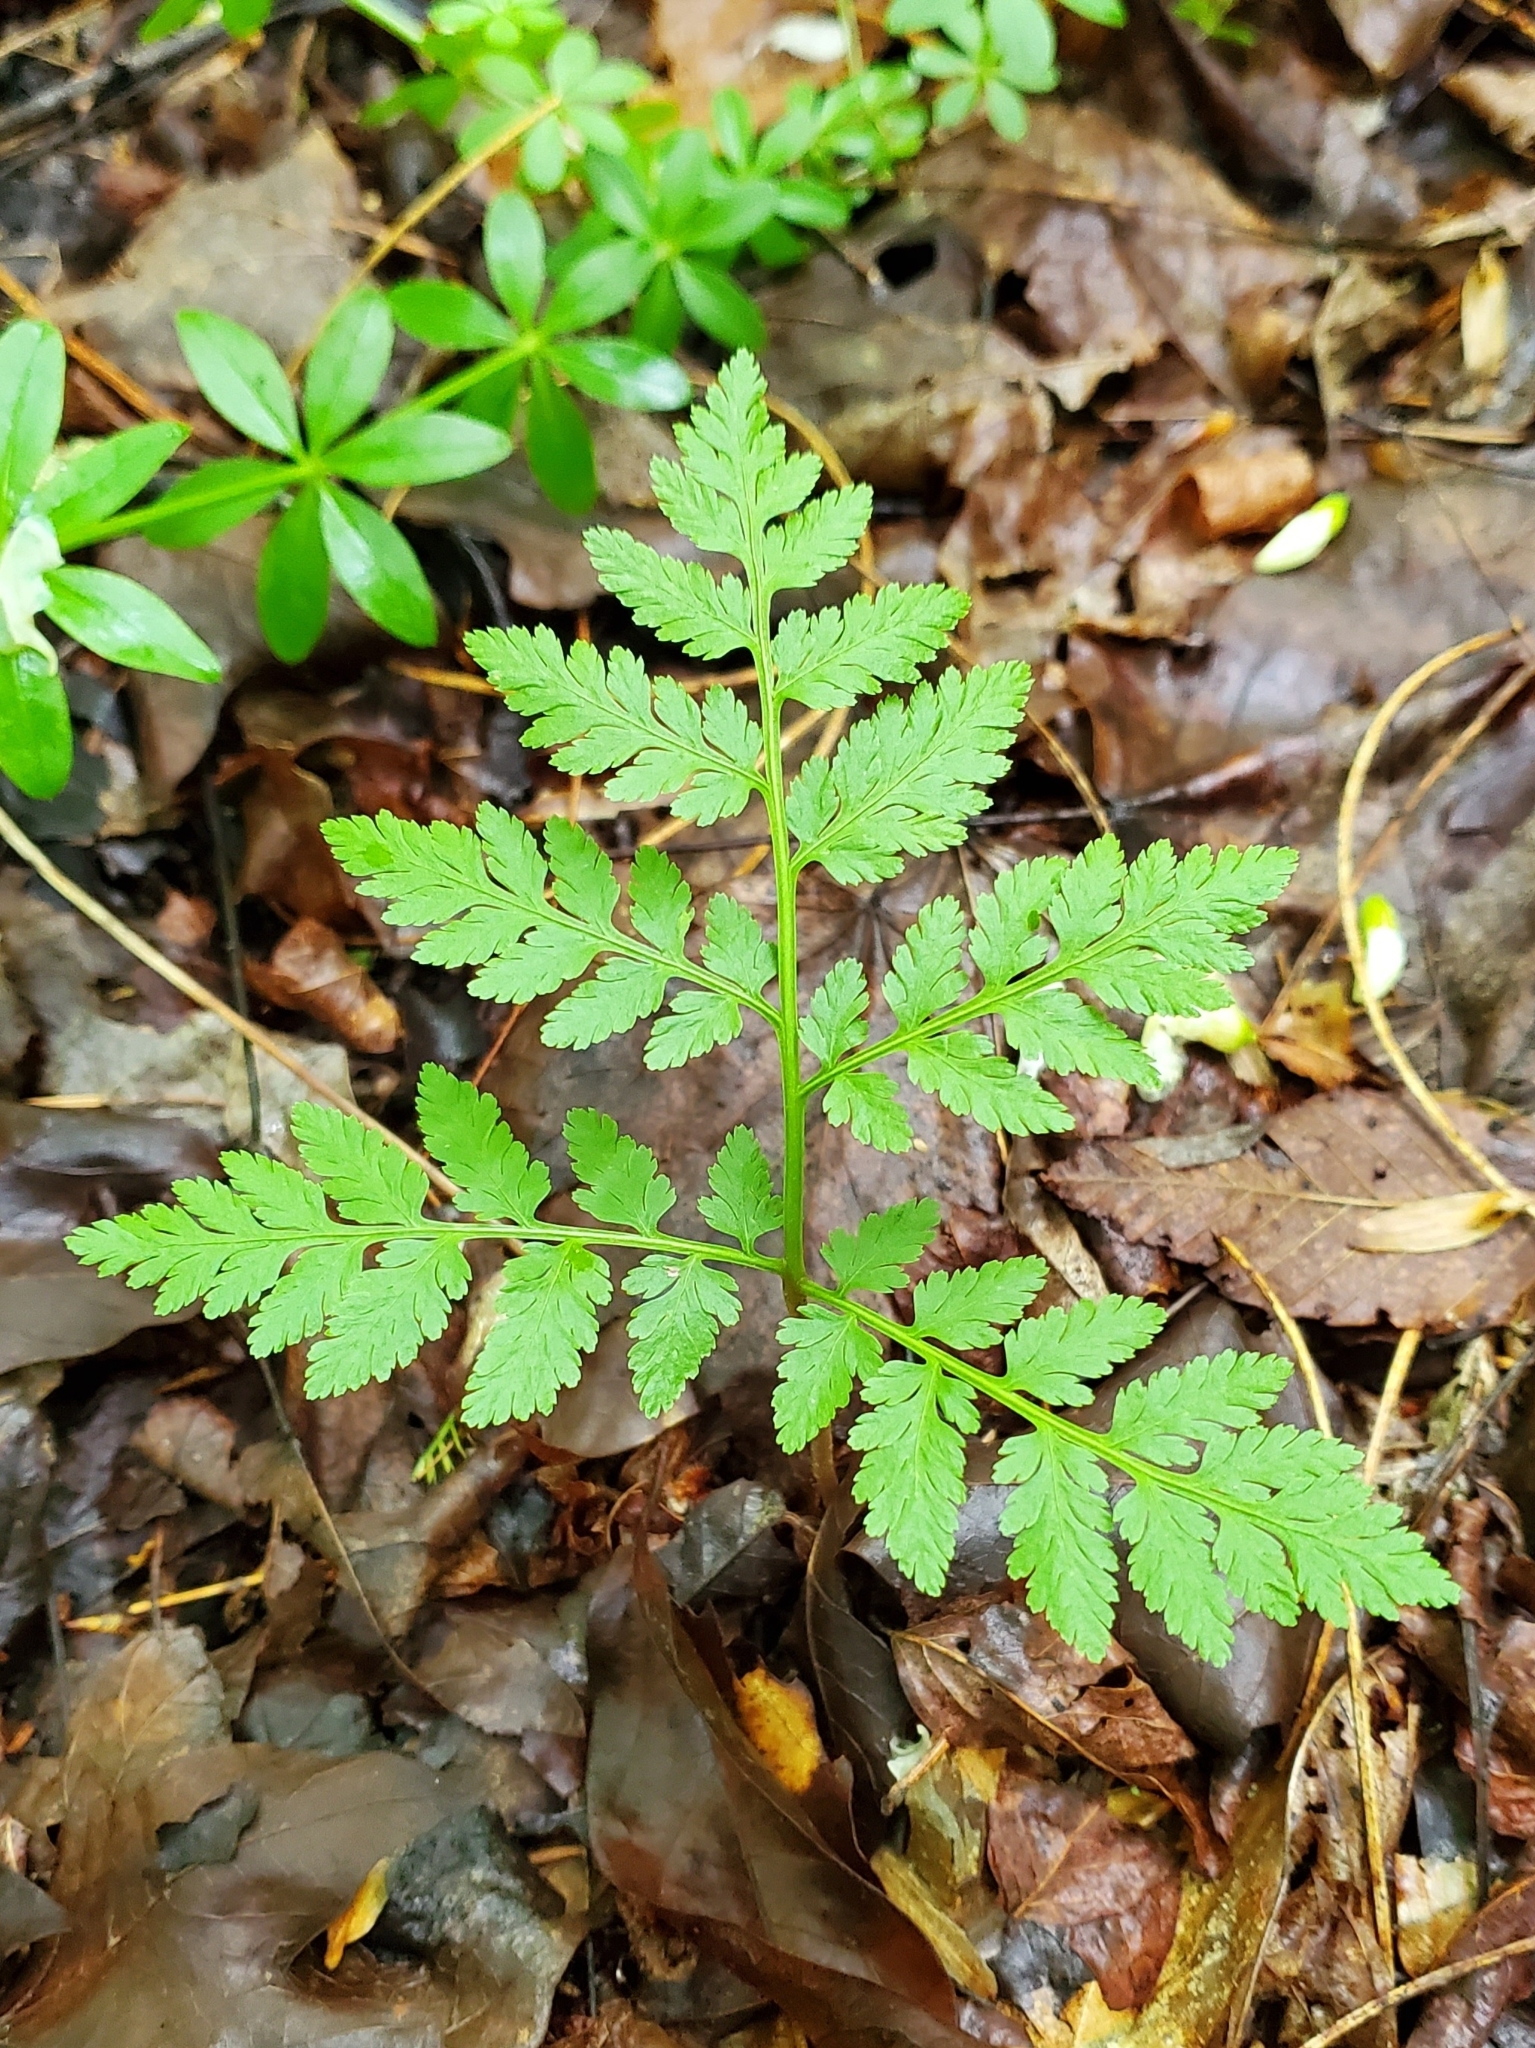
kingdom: Plantae
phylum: Tracheophyta
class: Polypodiopsida
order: Ophioglossales
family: Ophioglossaceae
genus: Botrypus
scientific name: Botrypus virginianus
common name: Common grapefern
